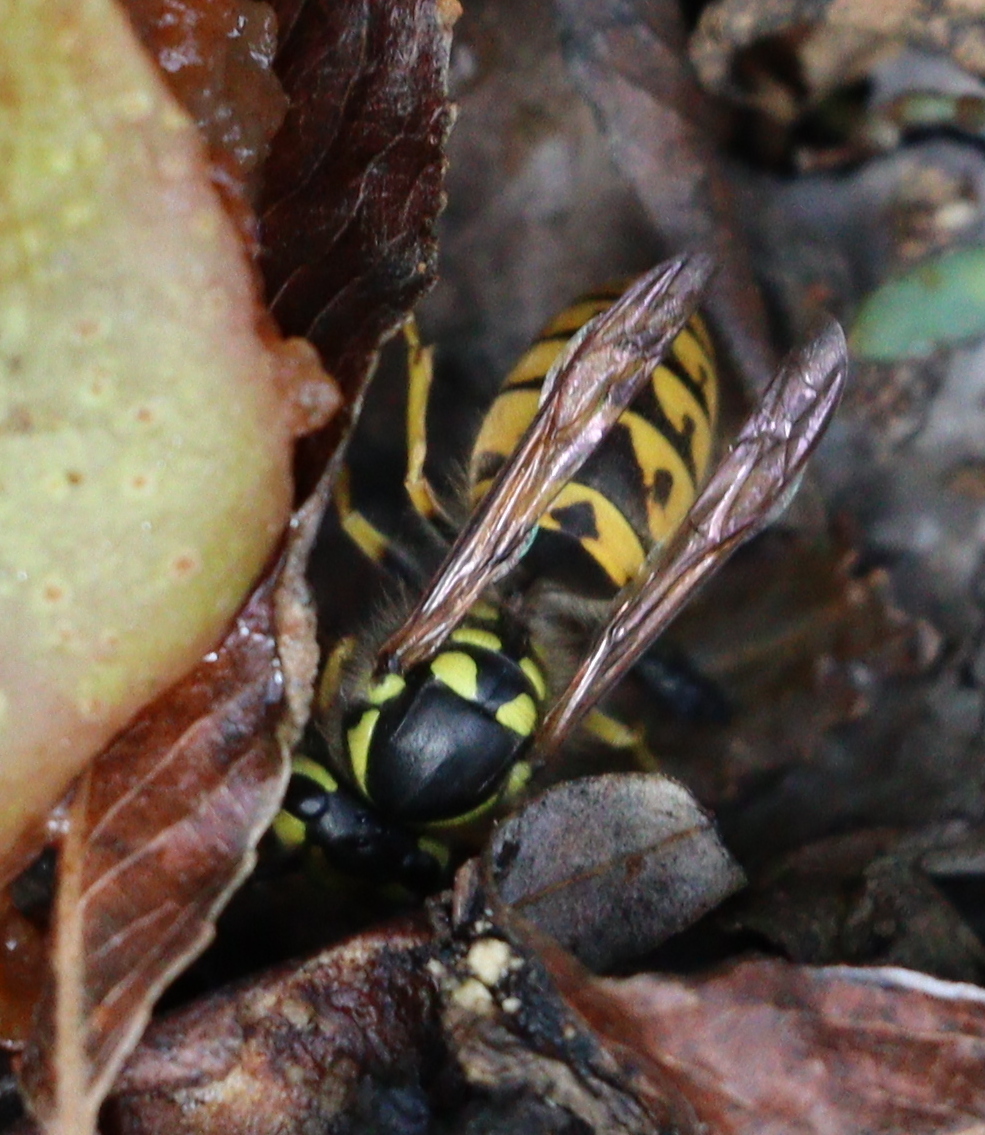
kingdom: Animalia
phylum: Arthropoda
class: Insecta
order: Hymenoptera
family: Vespidae
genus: Vespula
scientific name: Vespula germanica
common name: German wasp
